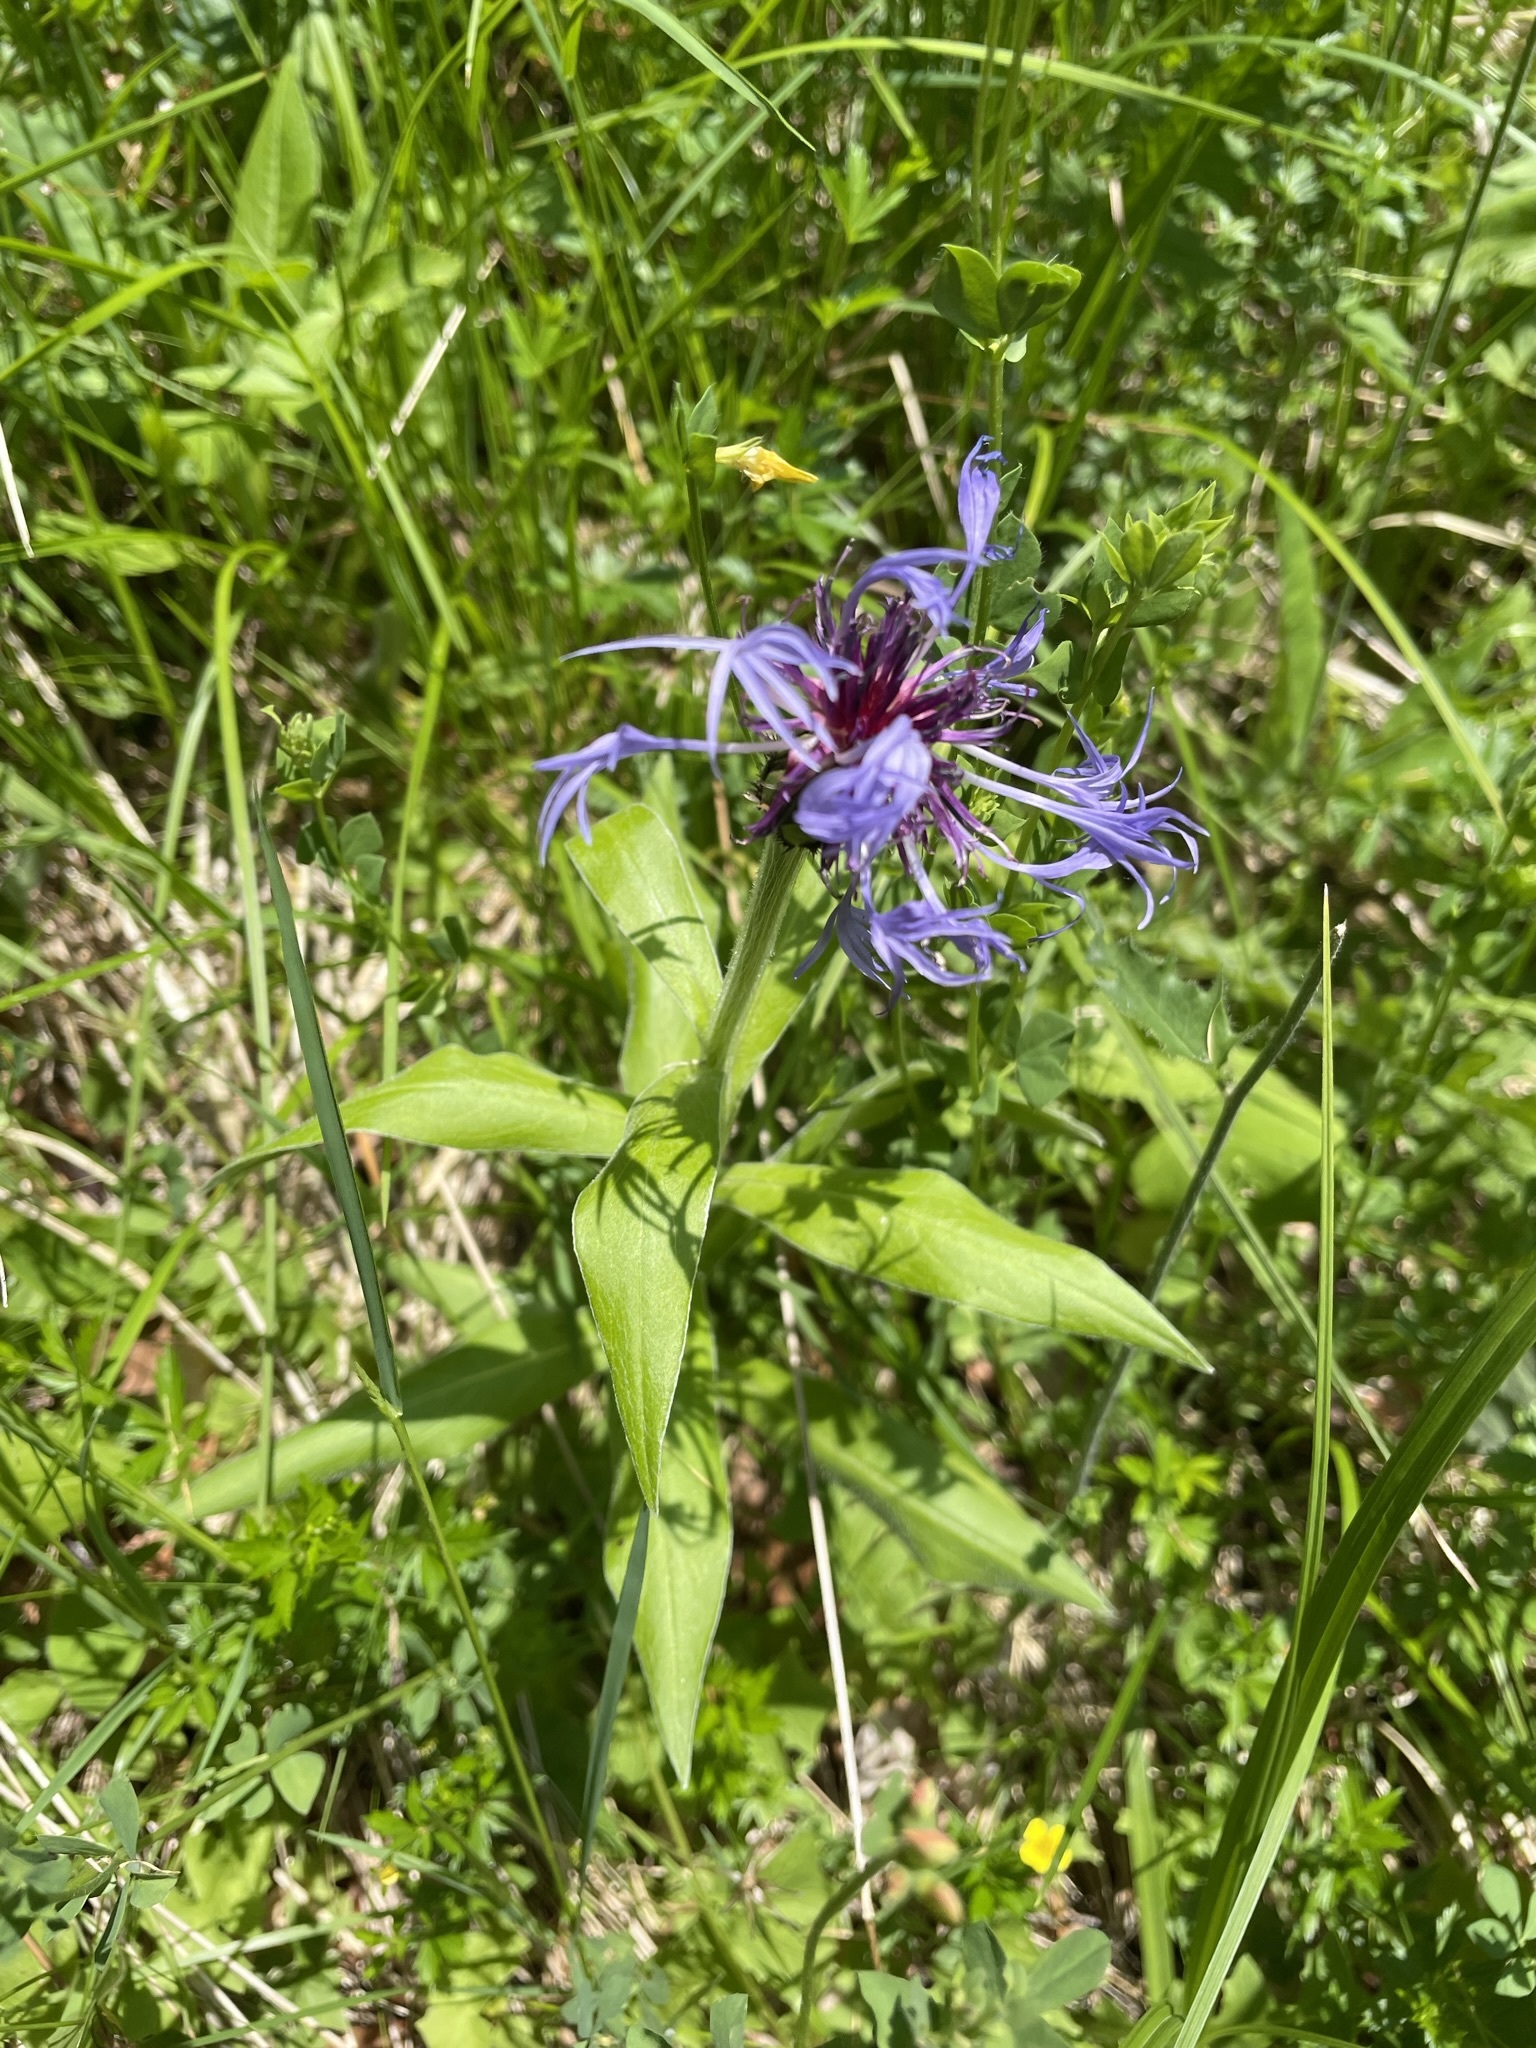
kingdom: Plantae
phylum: Tracheophyta
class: Magnoliopsida
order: Asterales
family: Asteraceae
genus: Centaurea
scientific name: Centaurea montana
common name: Perennial cornflower
